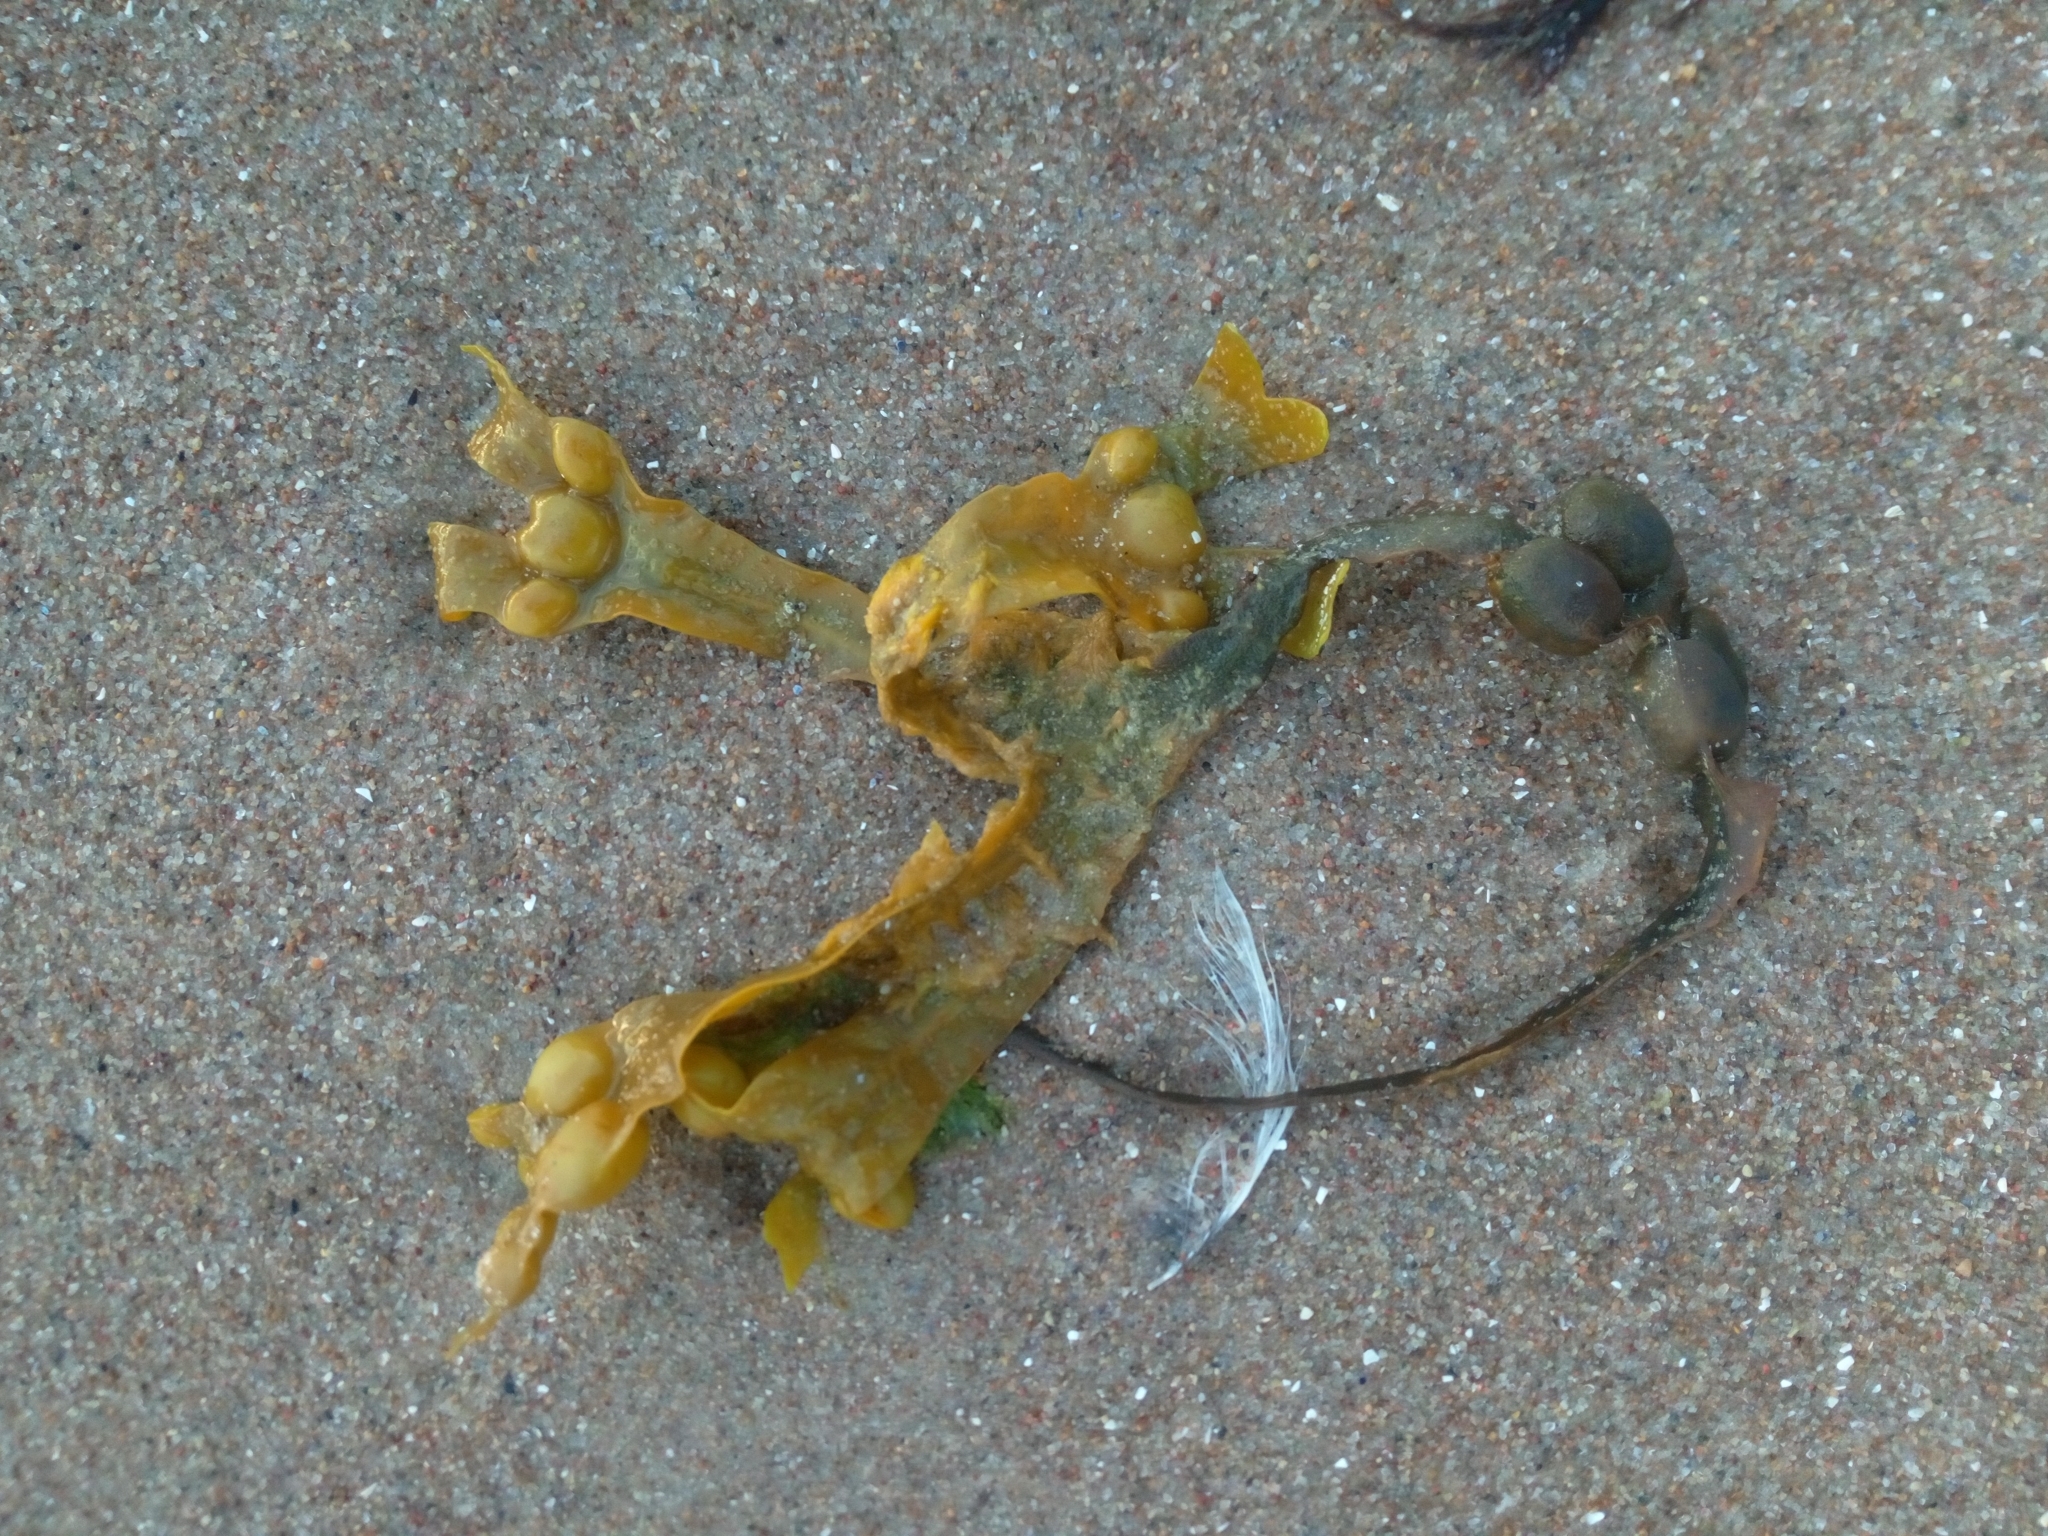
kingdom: Chromista
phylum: Ochrophyta
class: Phaeophyceae
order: Fucales
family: Fucaceae
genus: Fucus
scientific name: Fucus vesiculosus
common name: Bladder wrack
